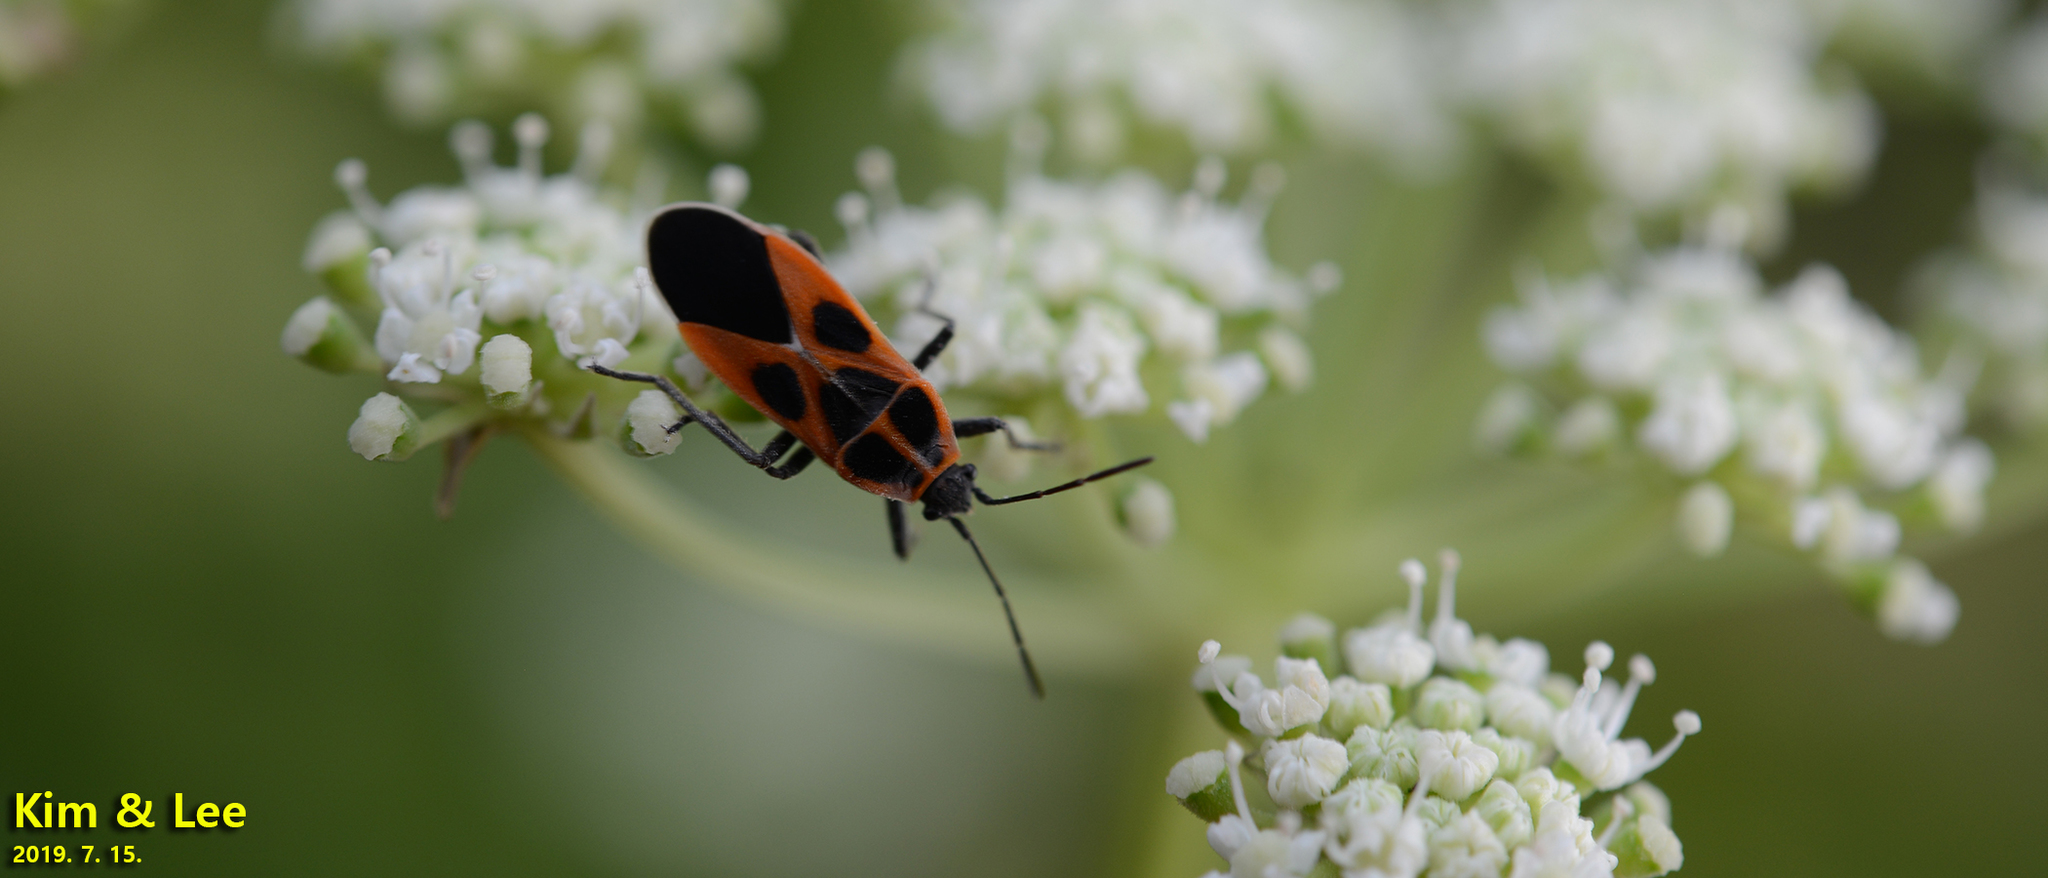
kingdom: Animalia
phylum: Arthropoda
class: Insecta
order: Hemiptera
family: Lygaeidae
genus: Tropidothorax
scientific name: Tropidothorax cruciger
